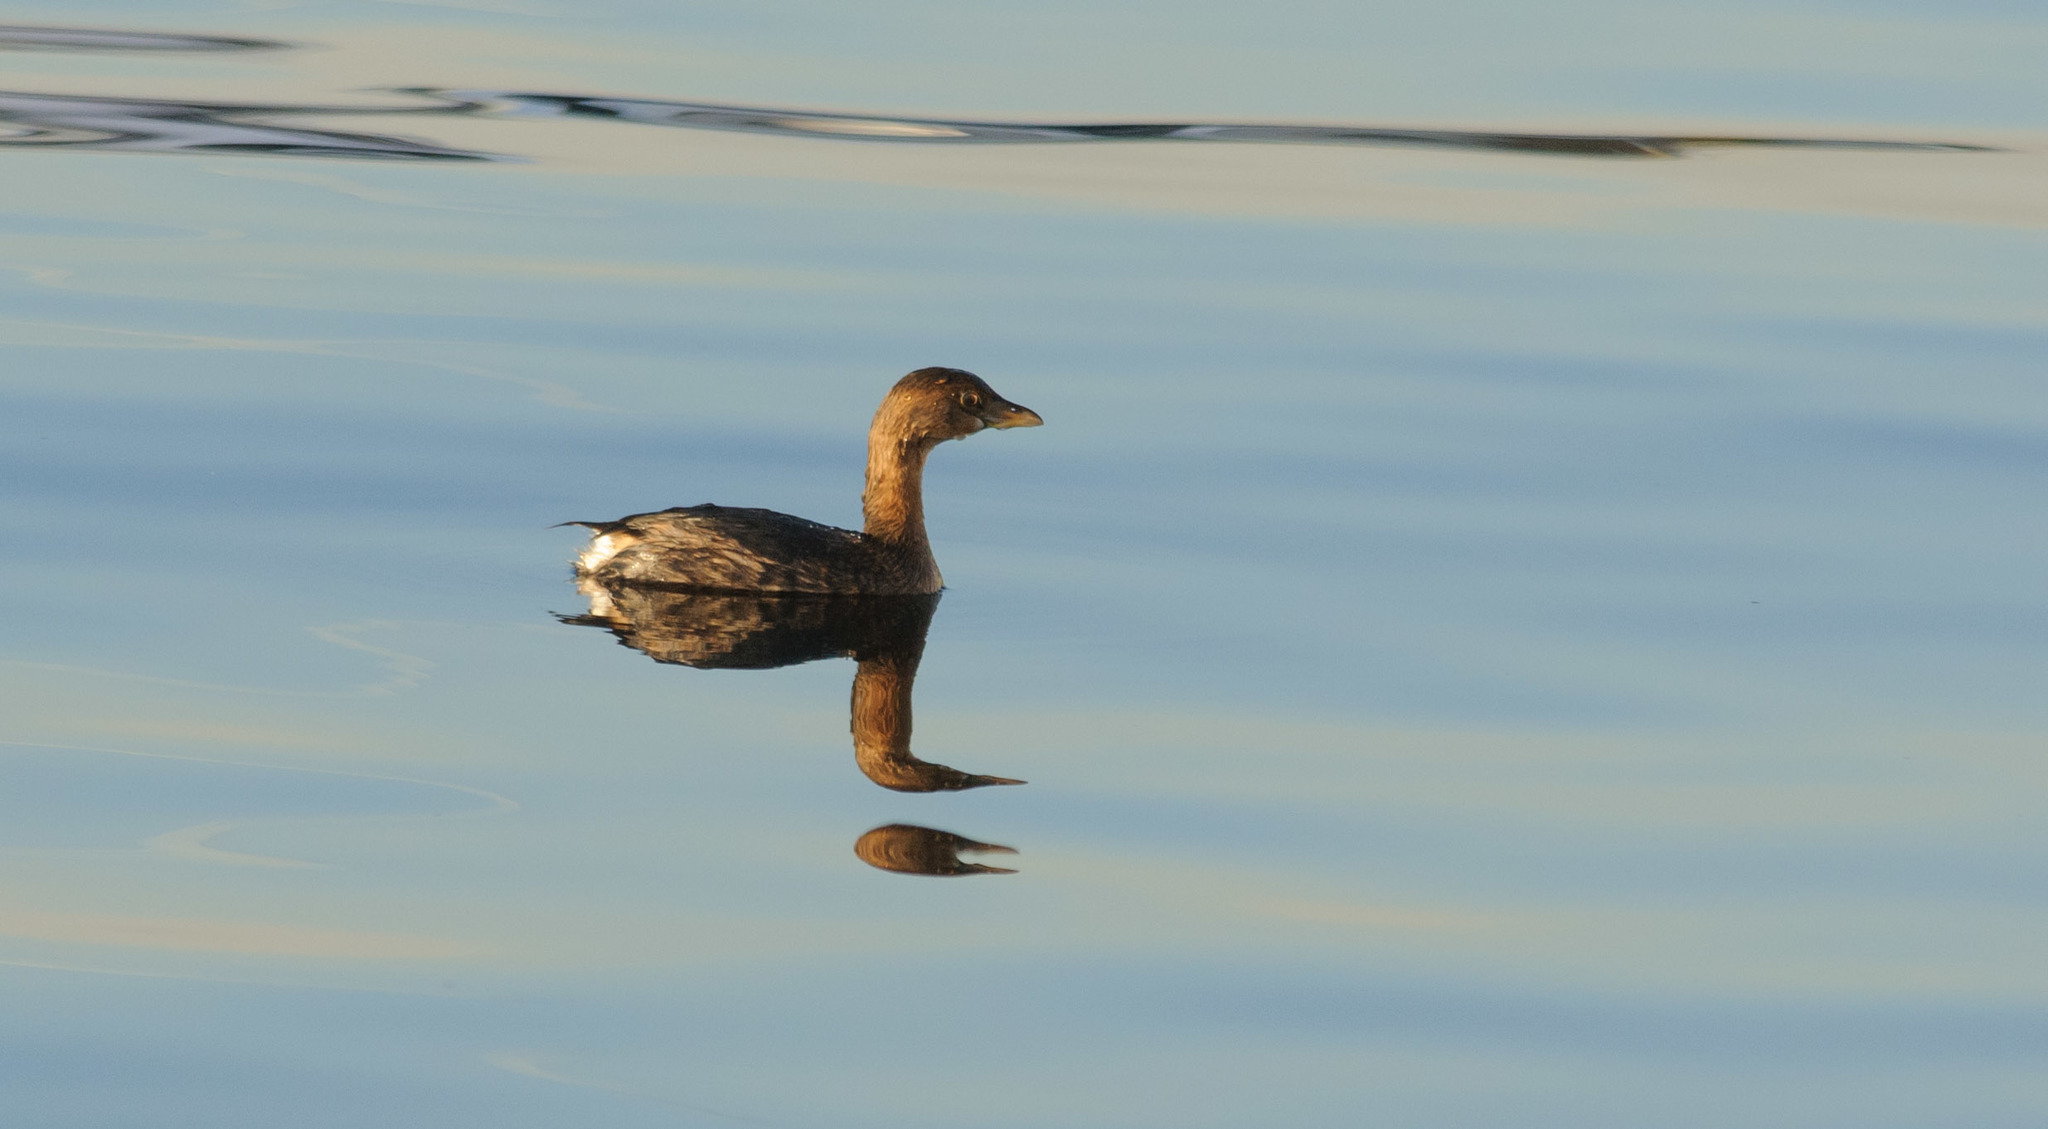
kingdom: Animalia
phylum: Chordata
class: Aves
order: Podicipediformes
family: Podicipedidae
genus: Podilymbus
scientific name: Podilymbus podiceps
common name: Pied-billed grebe
